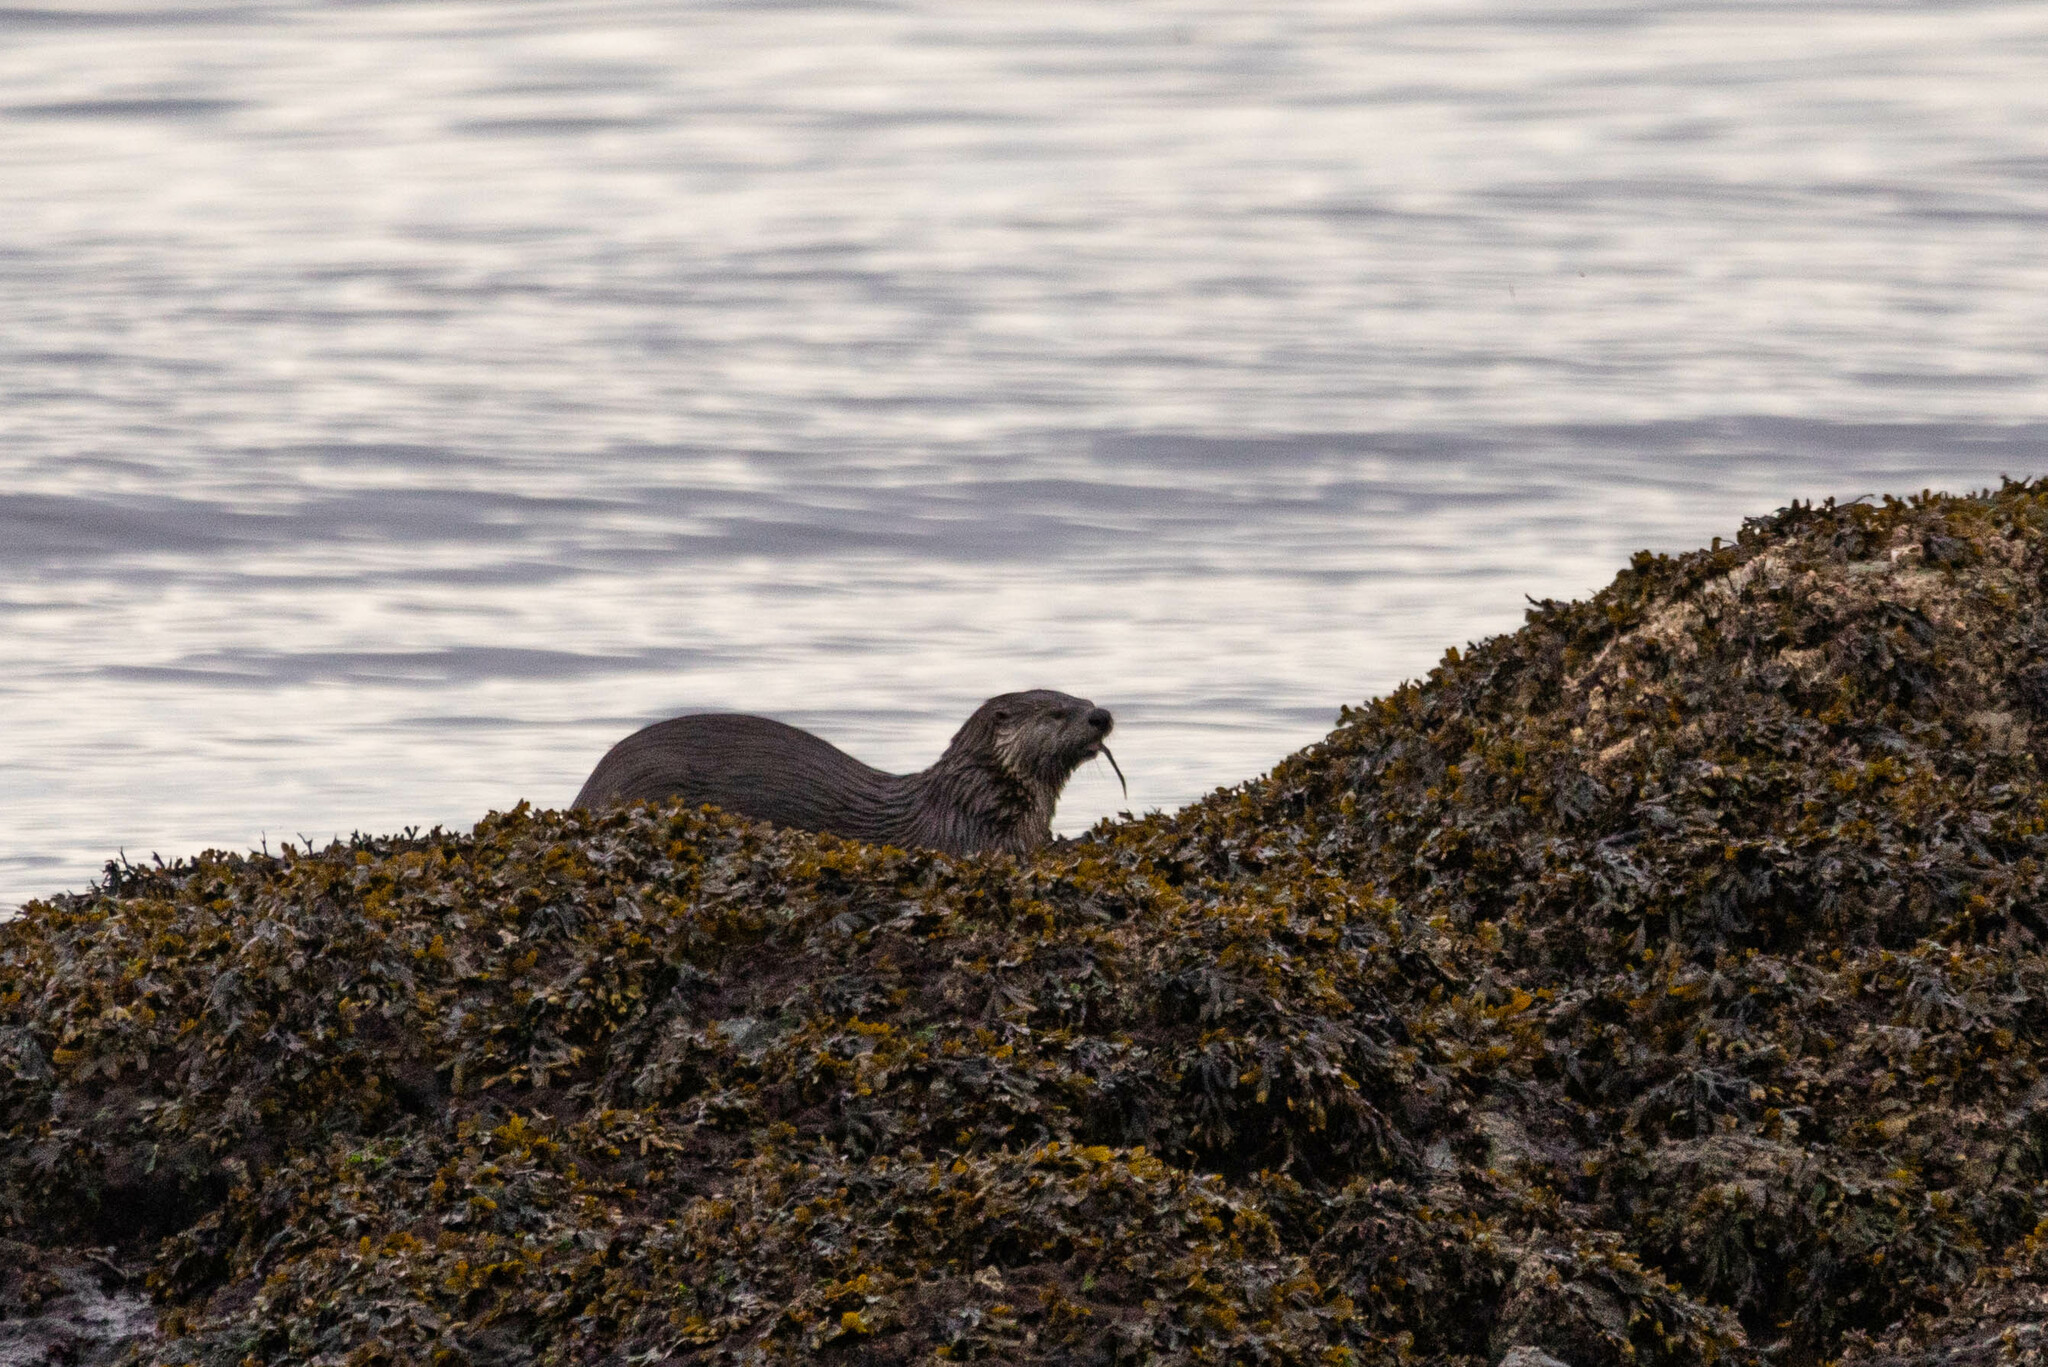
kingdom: Animalia
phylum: Chordata
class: Mammalia
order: Carnivora
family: Mustelidae
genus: Lontra
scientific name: Lontra canadensis
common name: North american river otter
